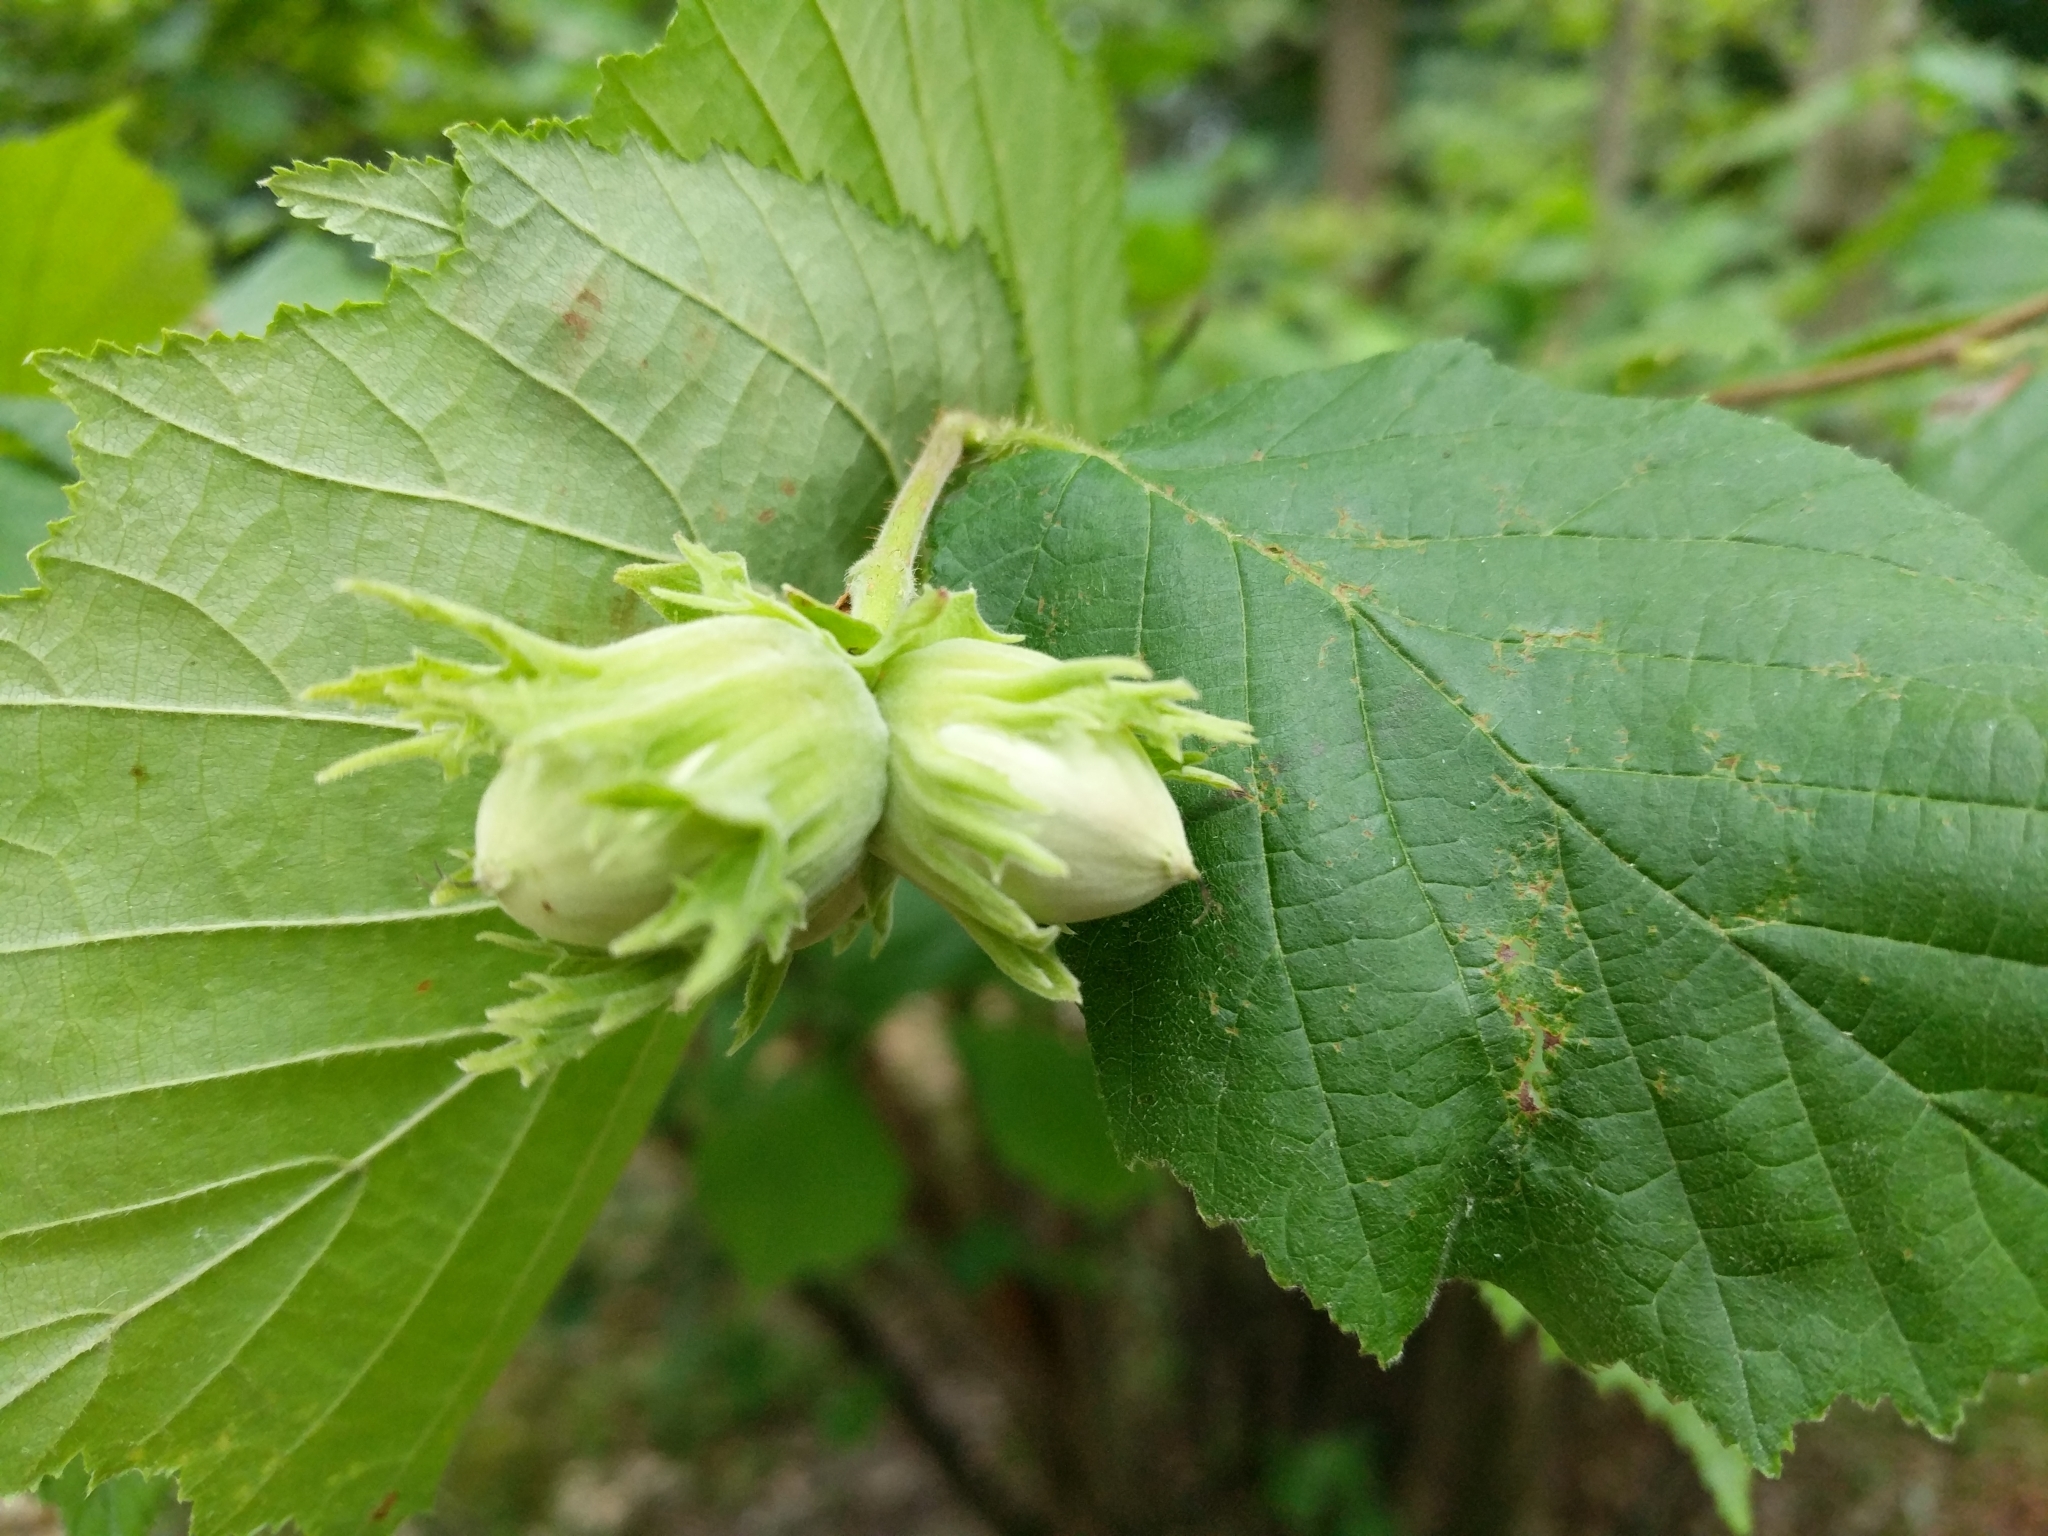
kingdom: Plantae
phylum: Tracheophyta
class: Magnoliopsida
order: Fagales
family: Betulaceae
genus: Corylus
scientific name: Corylus avellana
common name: European hazel
